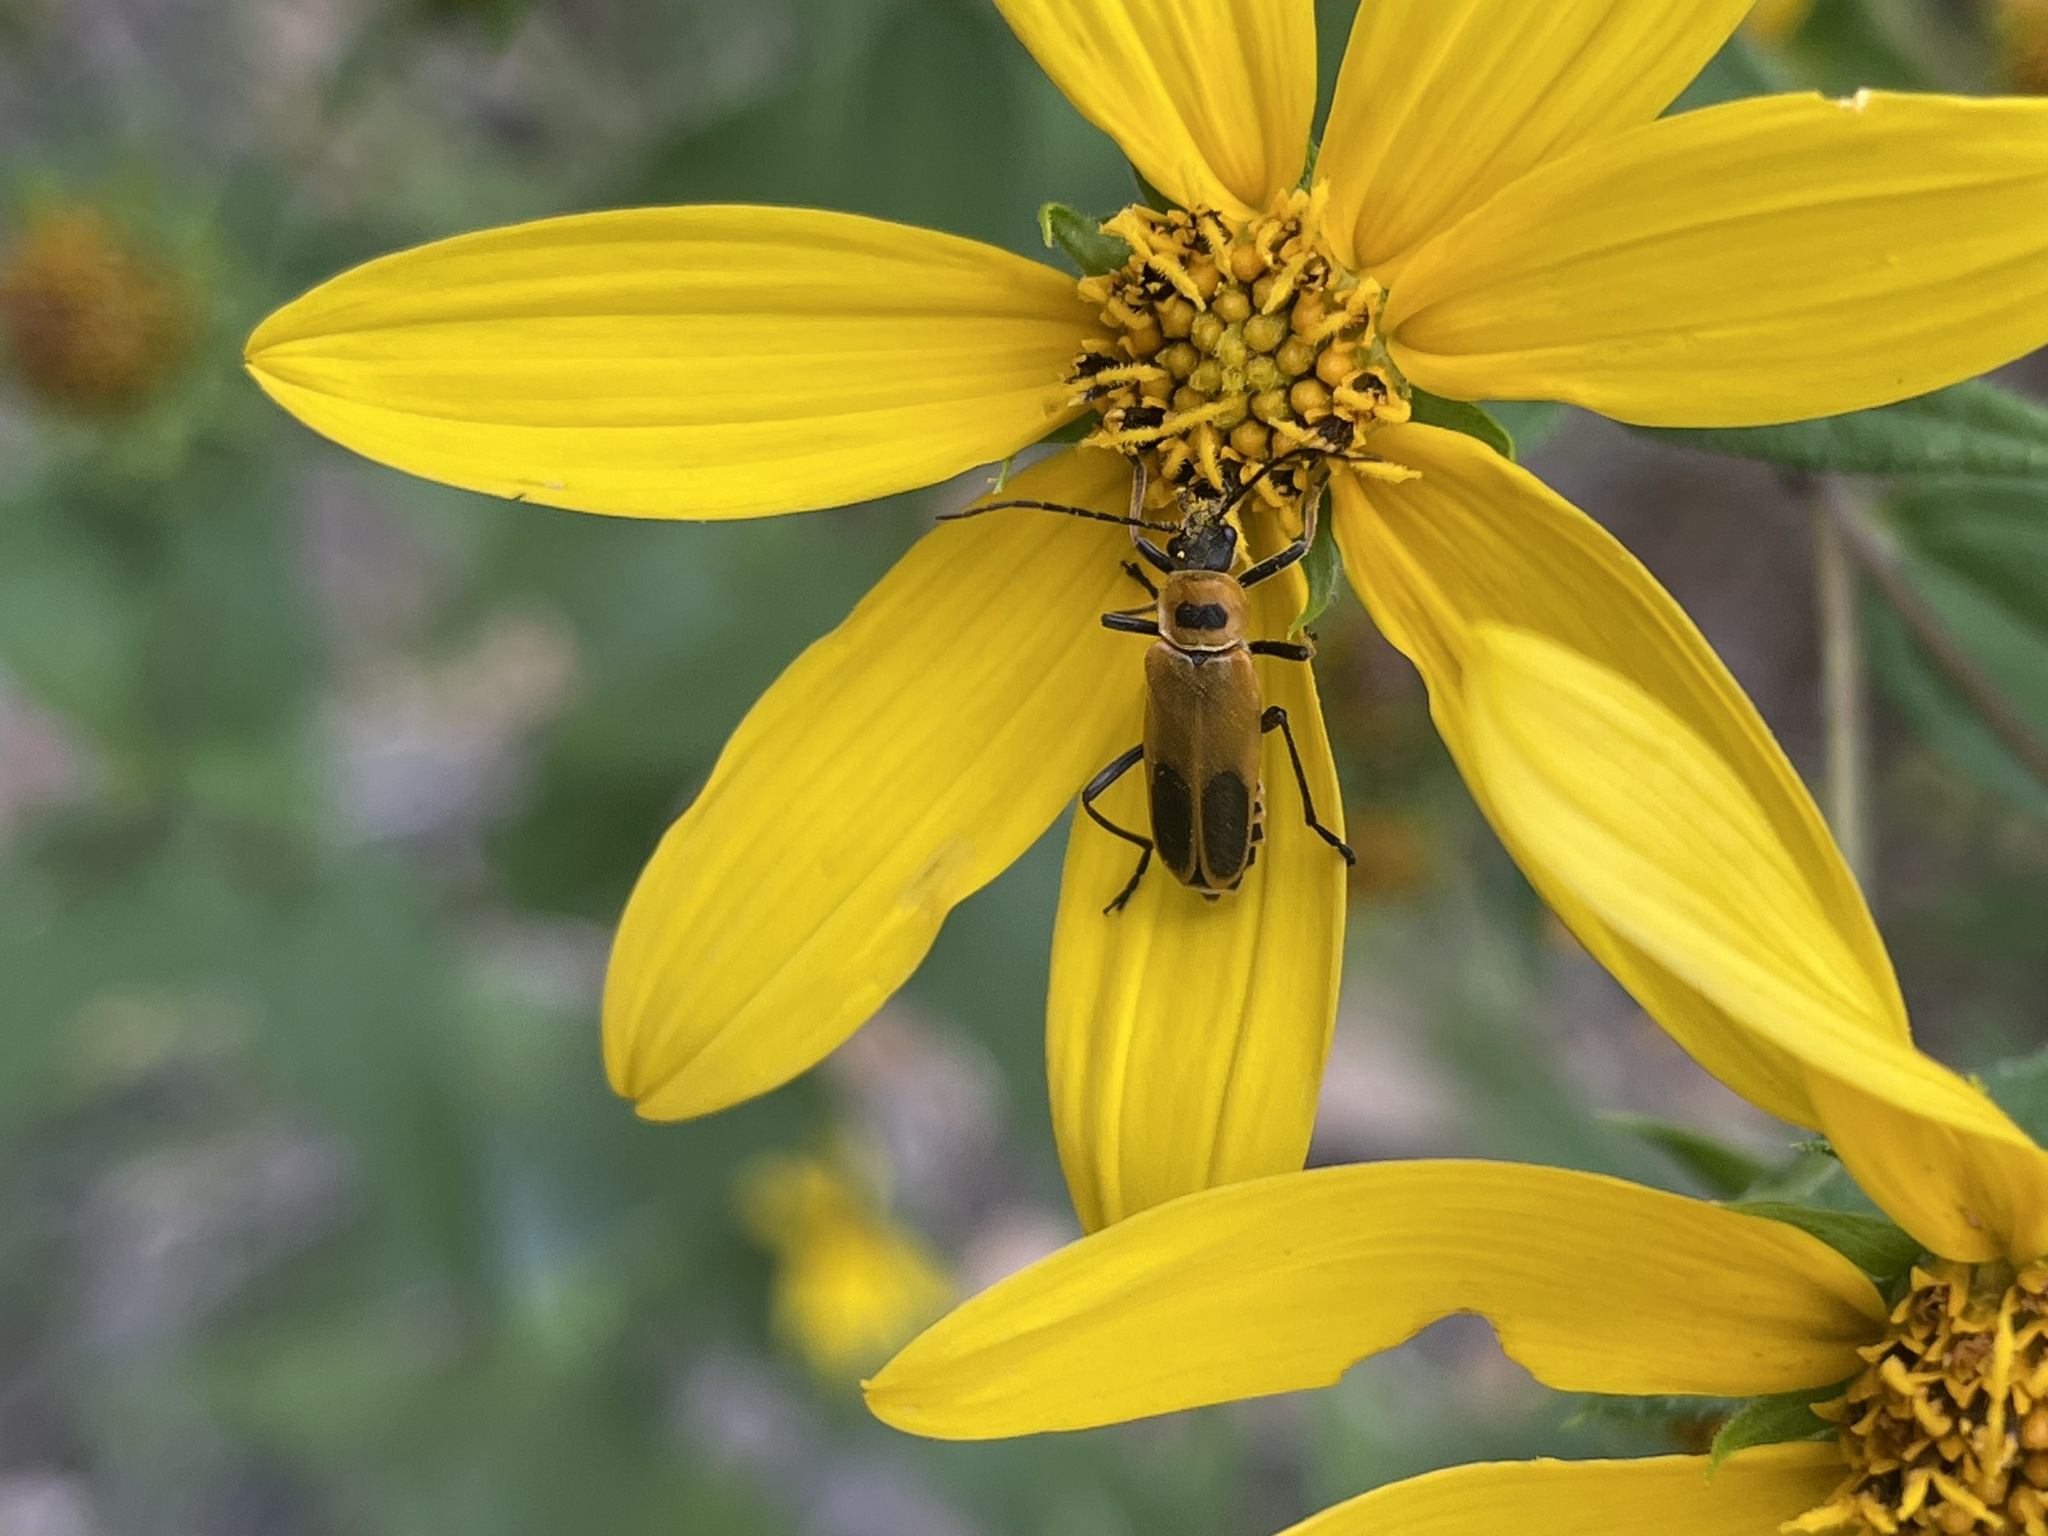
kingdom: Animalia
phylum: Arthropoda
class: Insecta
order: Coleoptera
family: Cantharidae
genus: Chauliognathus
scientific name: Chauliognathus pensylvanicus
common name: Goldenrod soldier beetle
